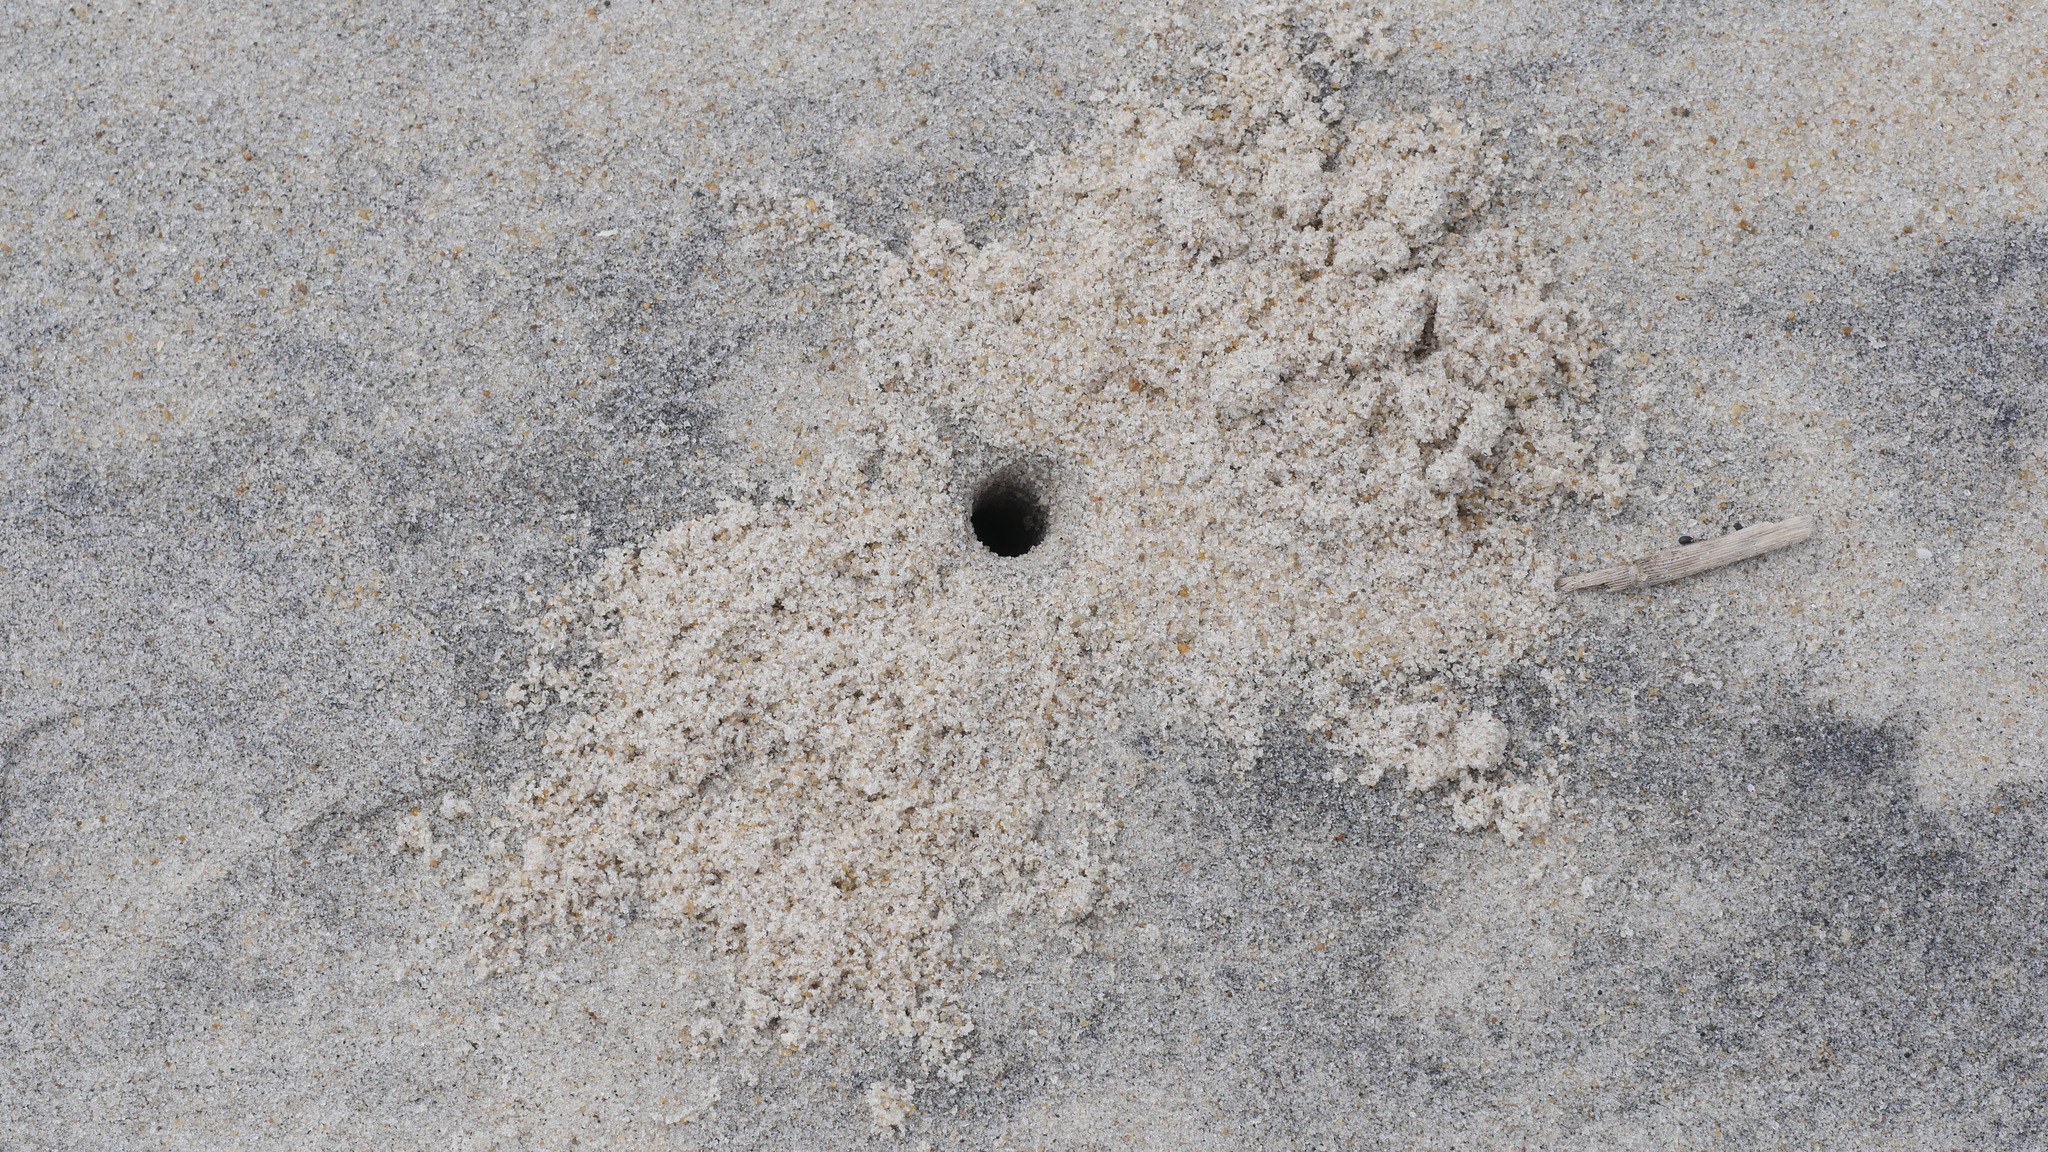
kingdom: Animalia
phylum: Arthropoda
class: Malacostraca
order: Decapoda
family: Ocypodidae
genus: Ocypode
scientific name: Ocypode quadrata
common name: Ghost crab
